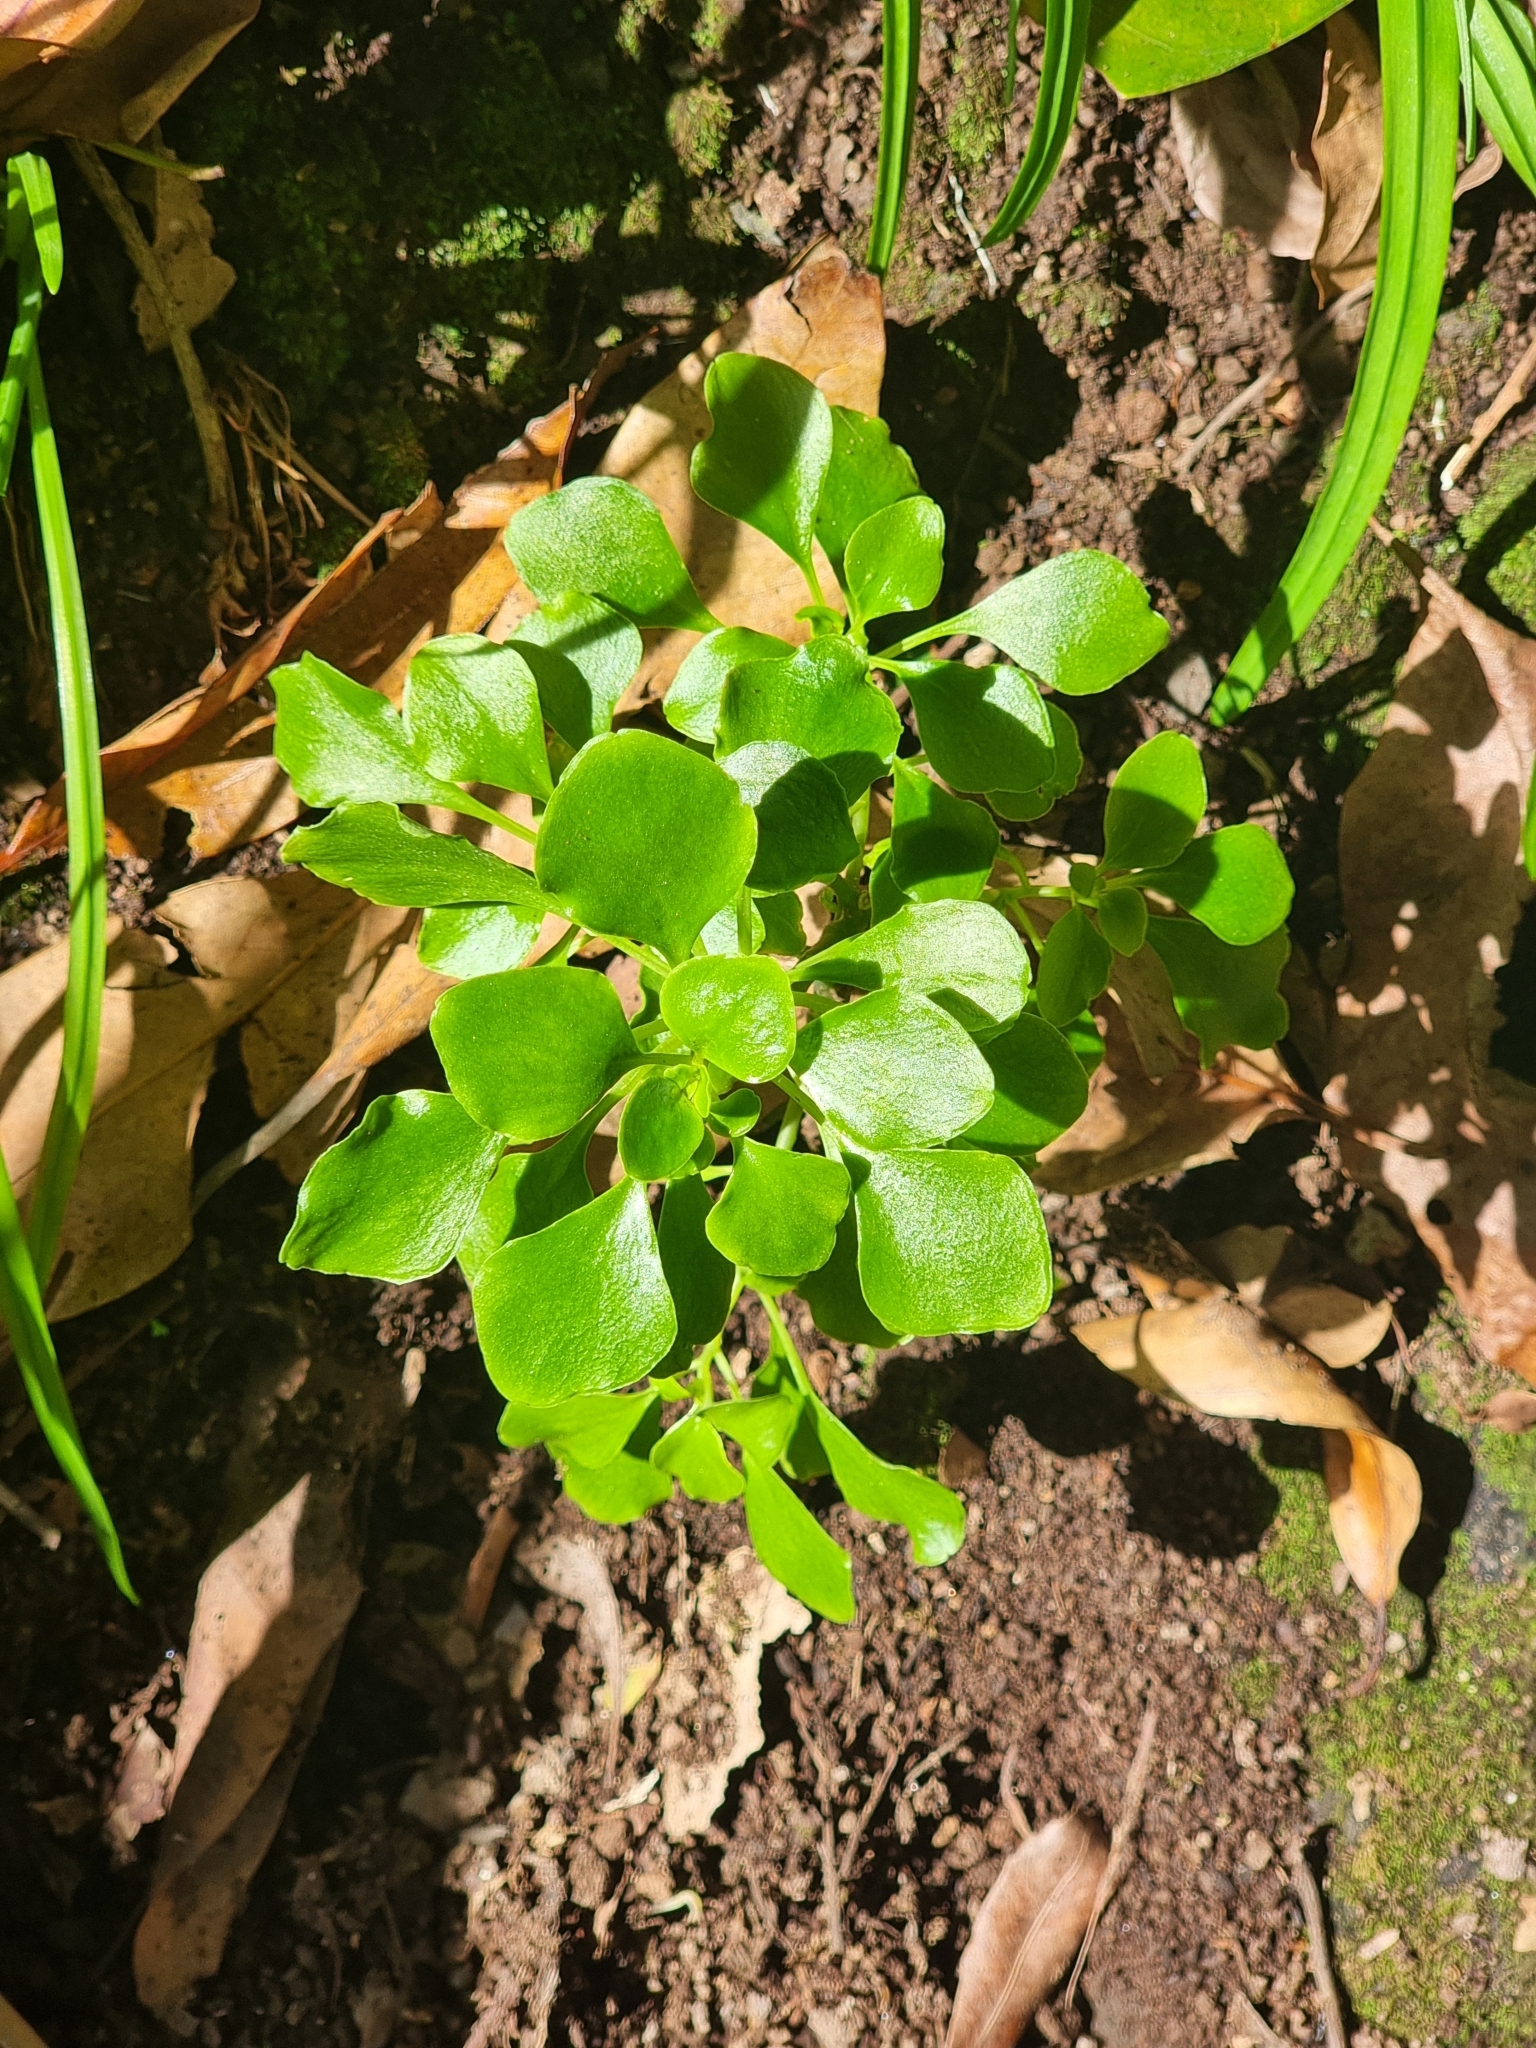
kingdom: Plantae
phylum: Tracheophyta
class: Magnoliopsida
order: Saxifragales
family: Crassulaceae
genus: Aichryson
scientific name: Aichryson divaricatum
